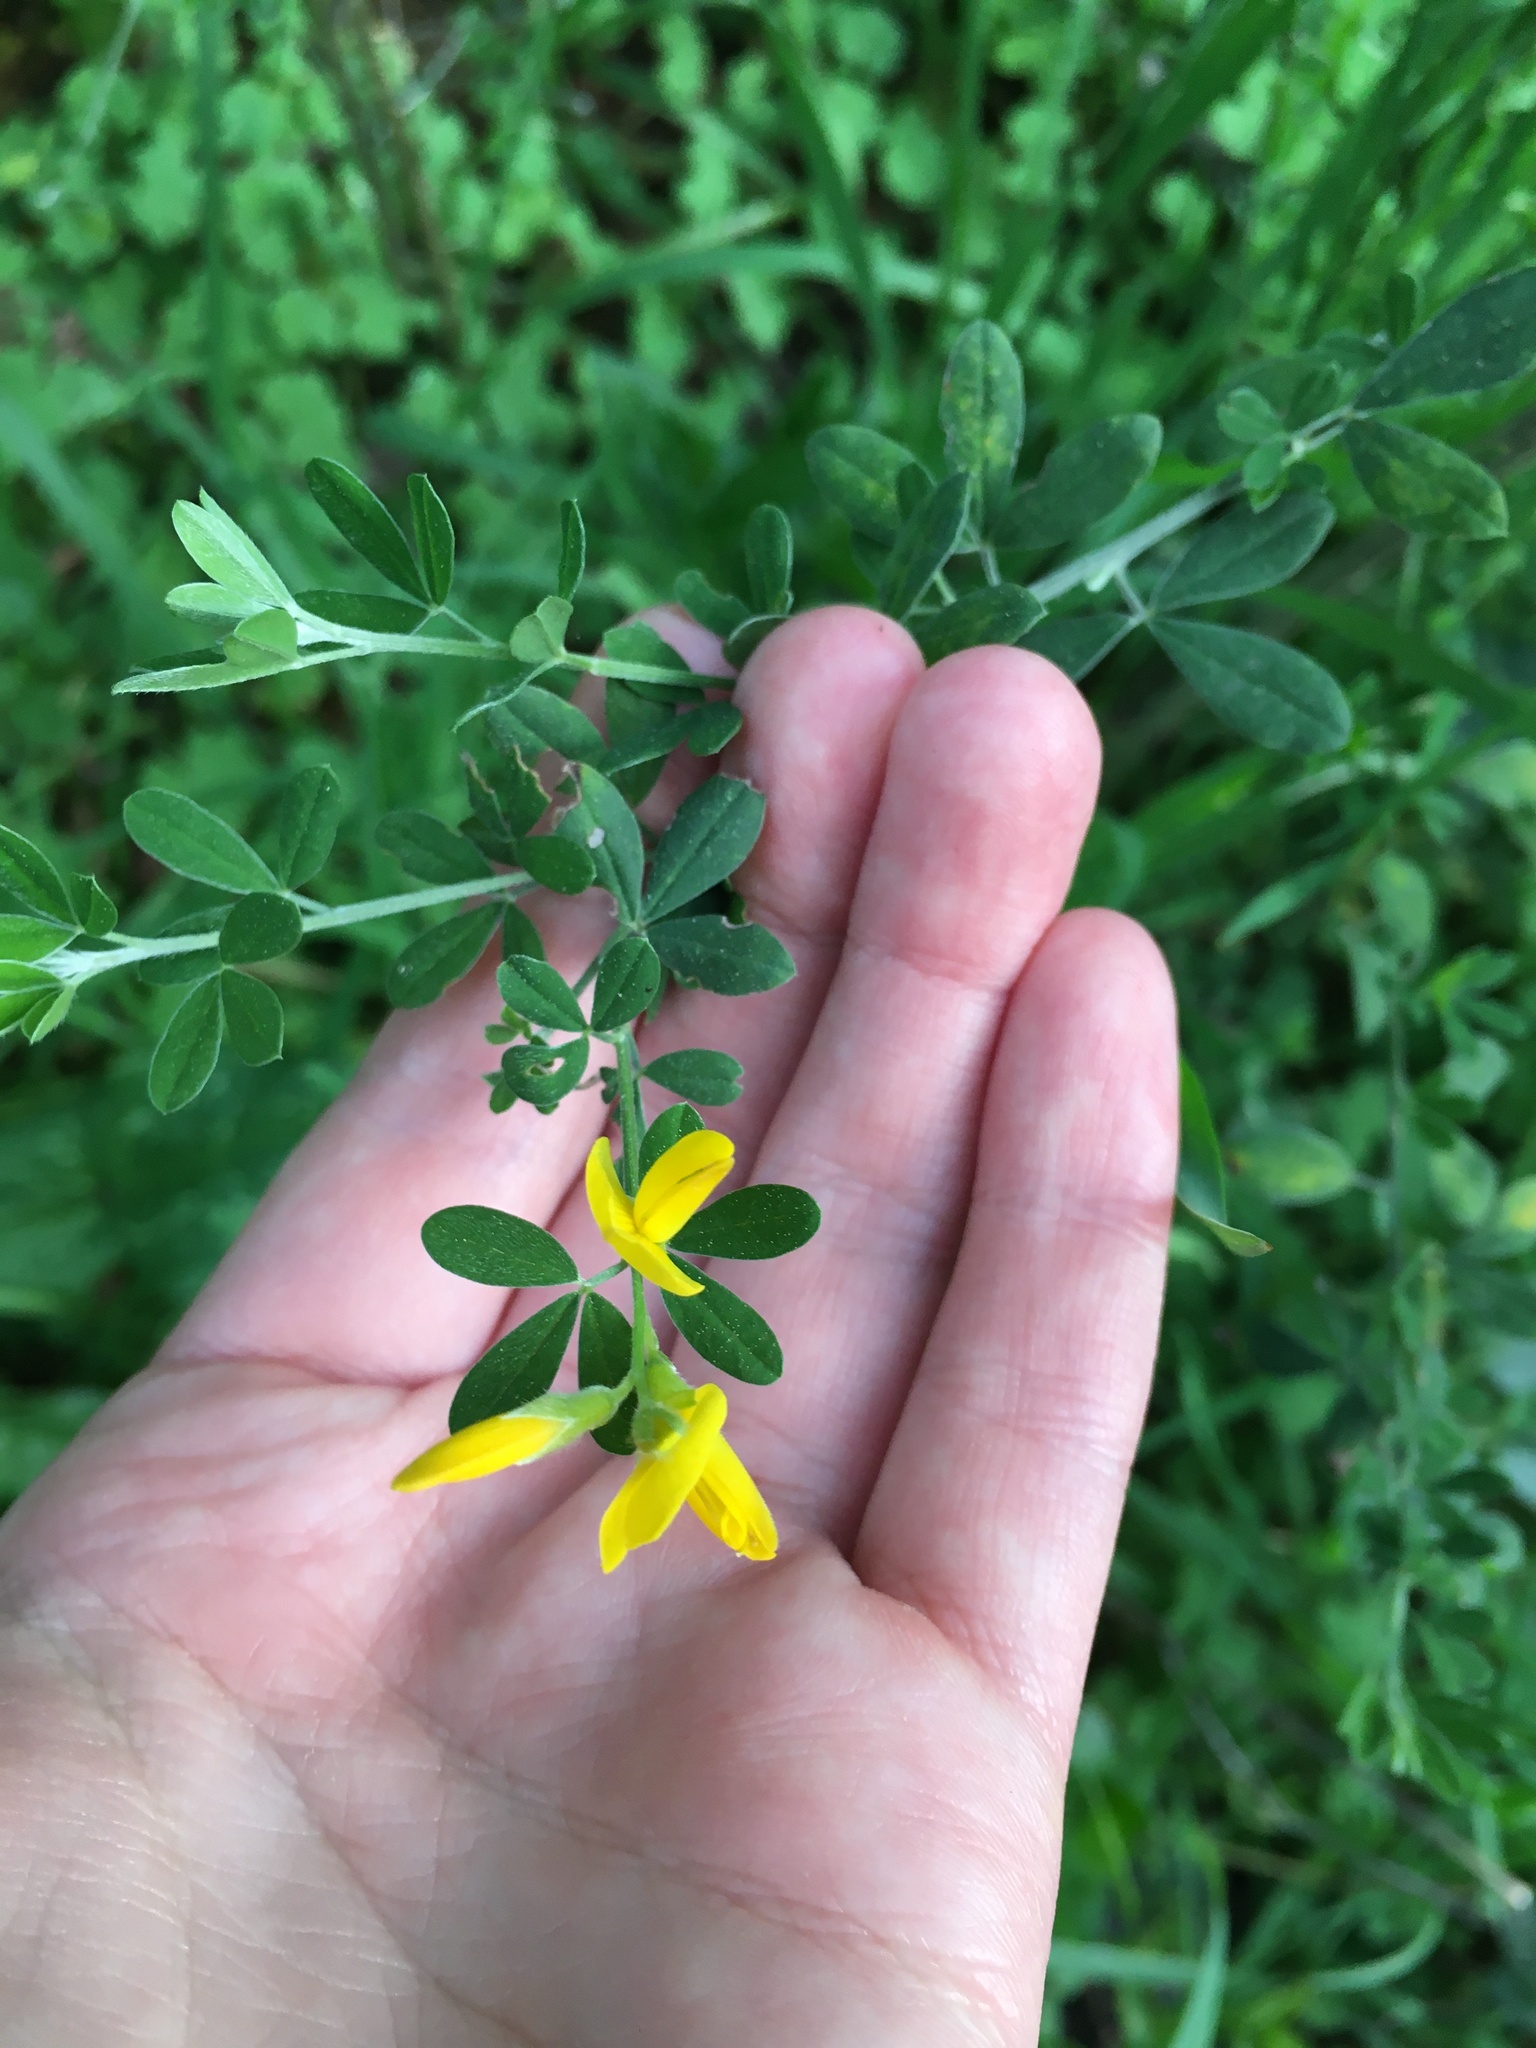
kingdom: Plantae
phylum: Tracheophyta
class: Magnoliopsida
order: Fabales
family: Fabaceae
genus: Genista
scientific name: Genista monspessulana
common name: Montpellier broom
